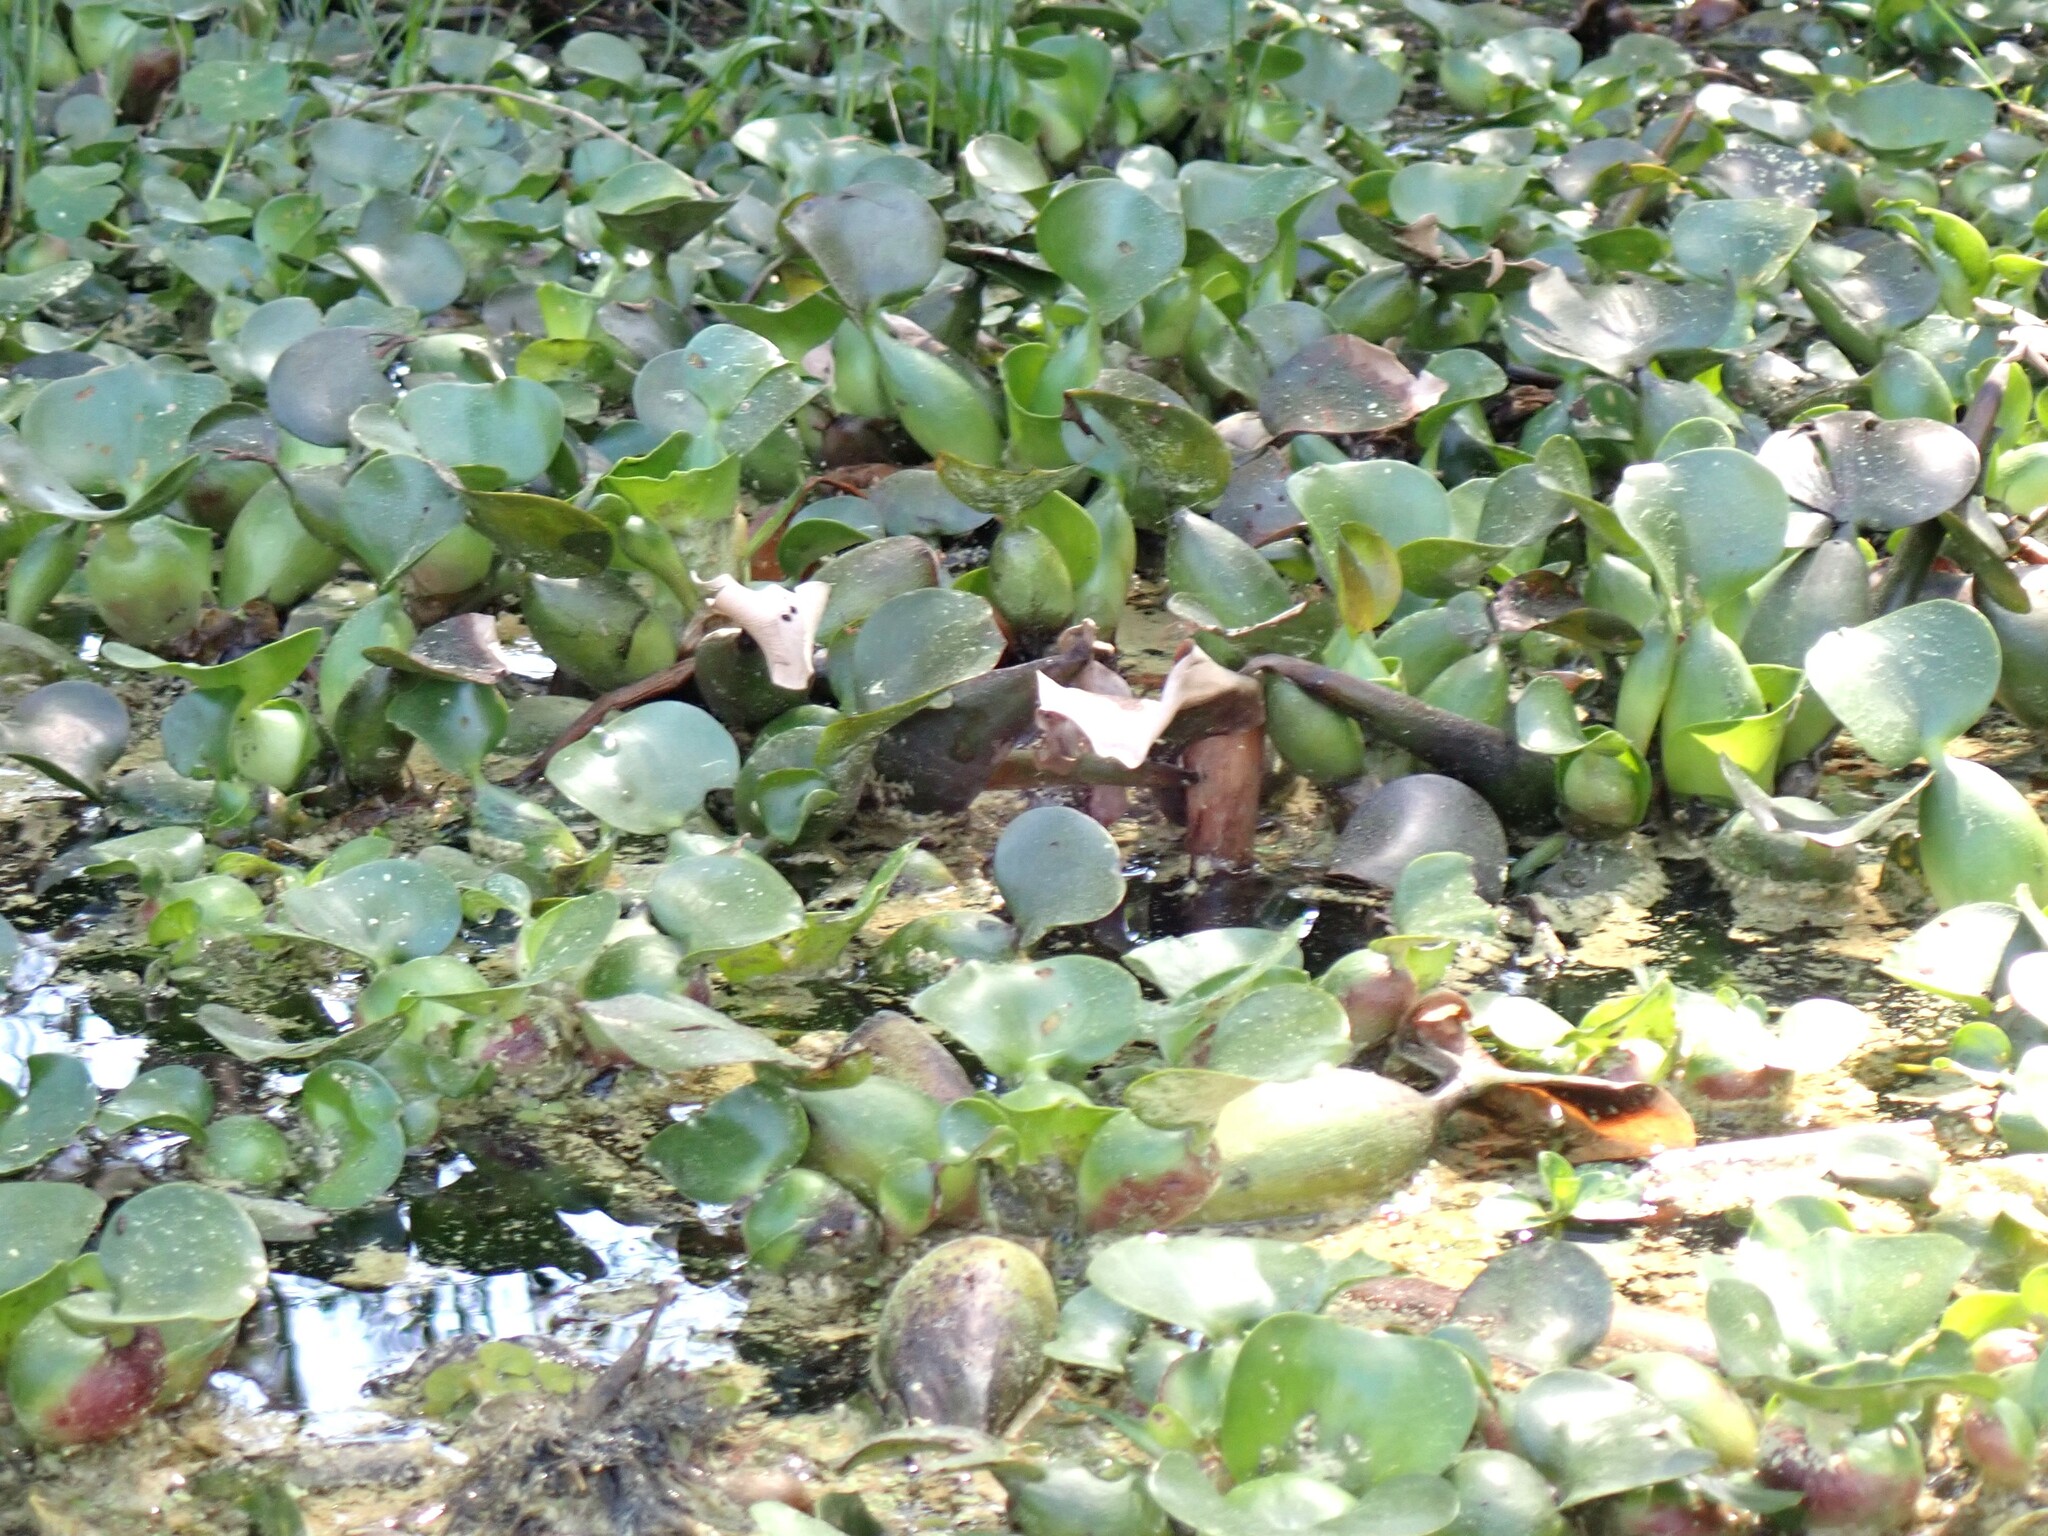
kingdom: Plantae
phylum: Tracheophyta
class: Liliopsida
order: Commelinales
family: Pontederiaceae
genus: Pontederia
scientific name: Pontederia crassipes
